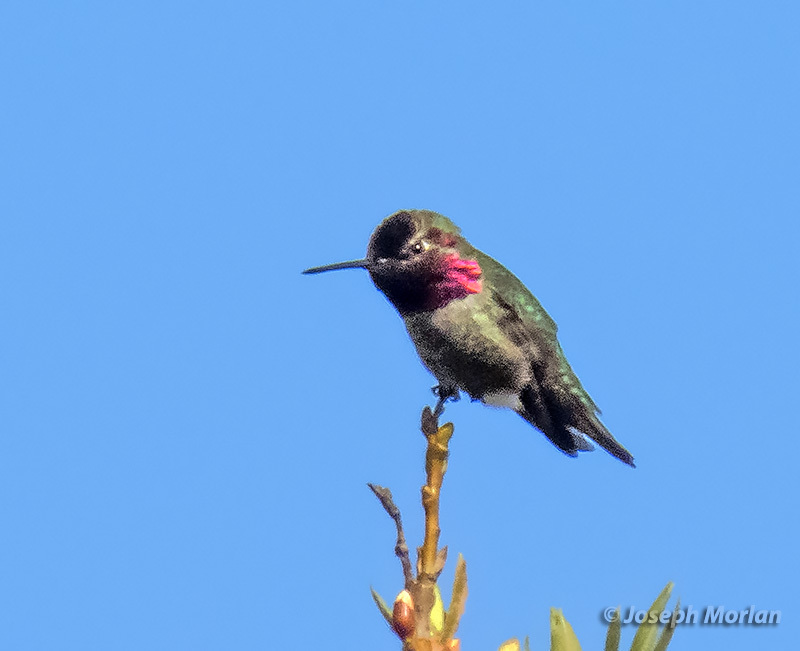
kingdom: Animalia
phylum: Chordata
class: Aves
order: Apodiformes
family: Trochilidae
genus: Calypte
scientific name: Calypte anna
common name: Anna's hummingbird
